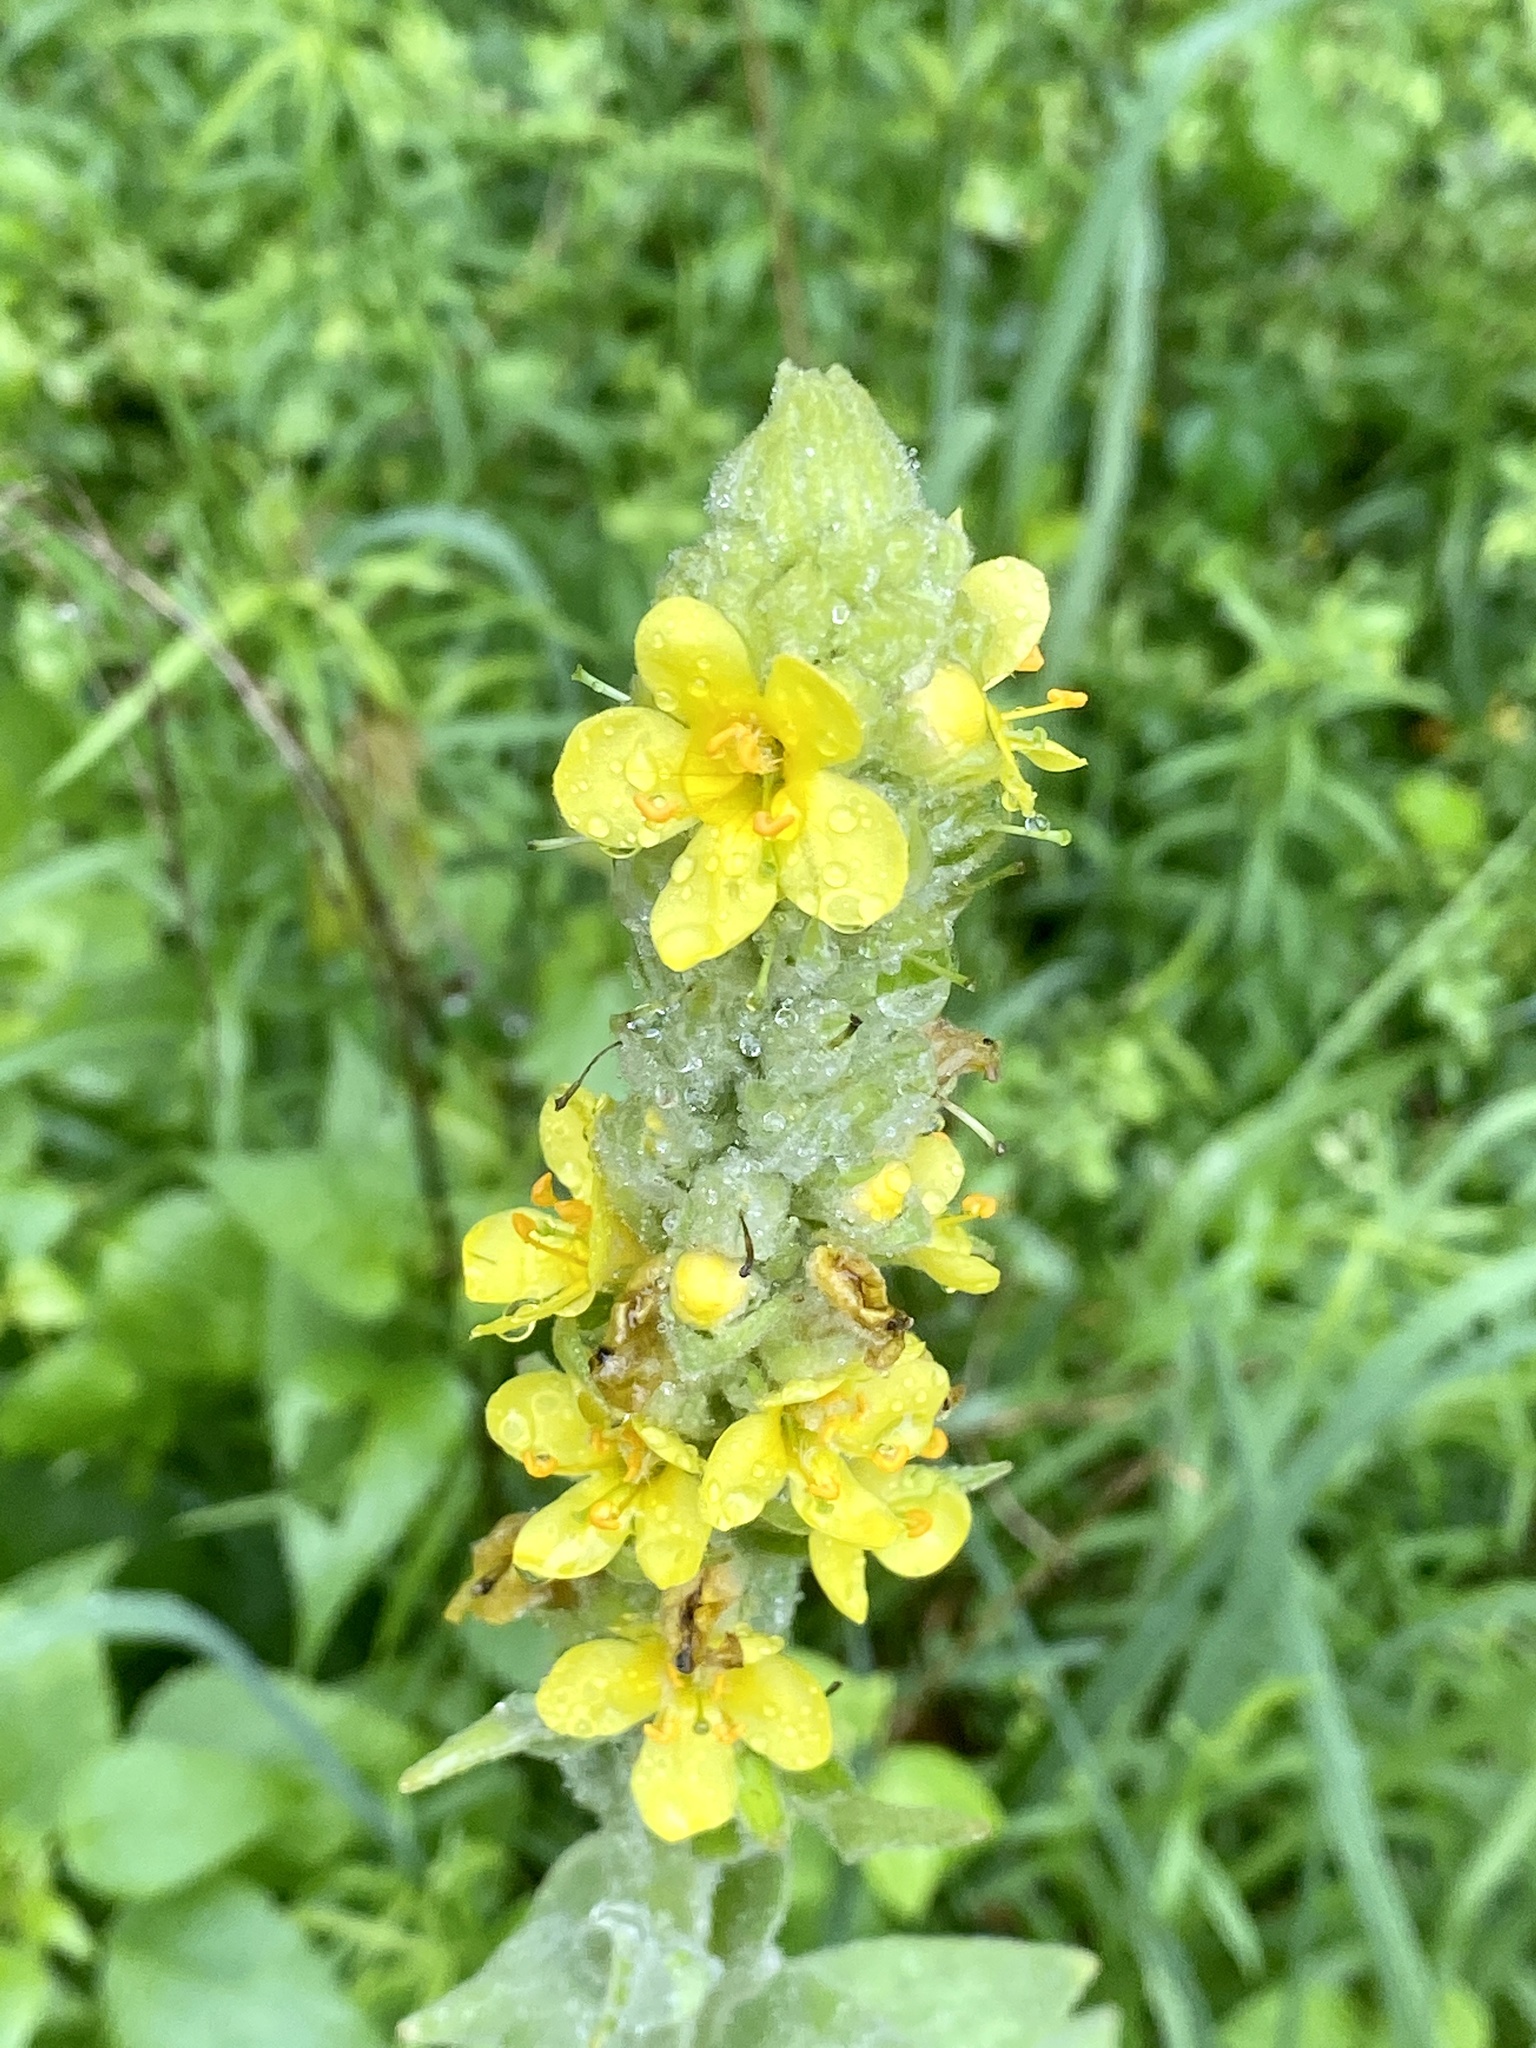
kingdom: Plantae
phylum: Tracheophyta
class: Magnoliopsida
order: Lamiales
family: Scrophulariaceae
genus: Verbascum
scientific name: Verbascum thapsus
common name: Common mullein
